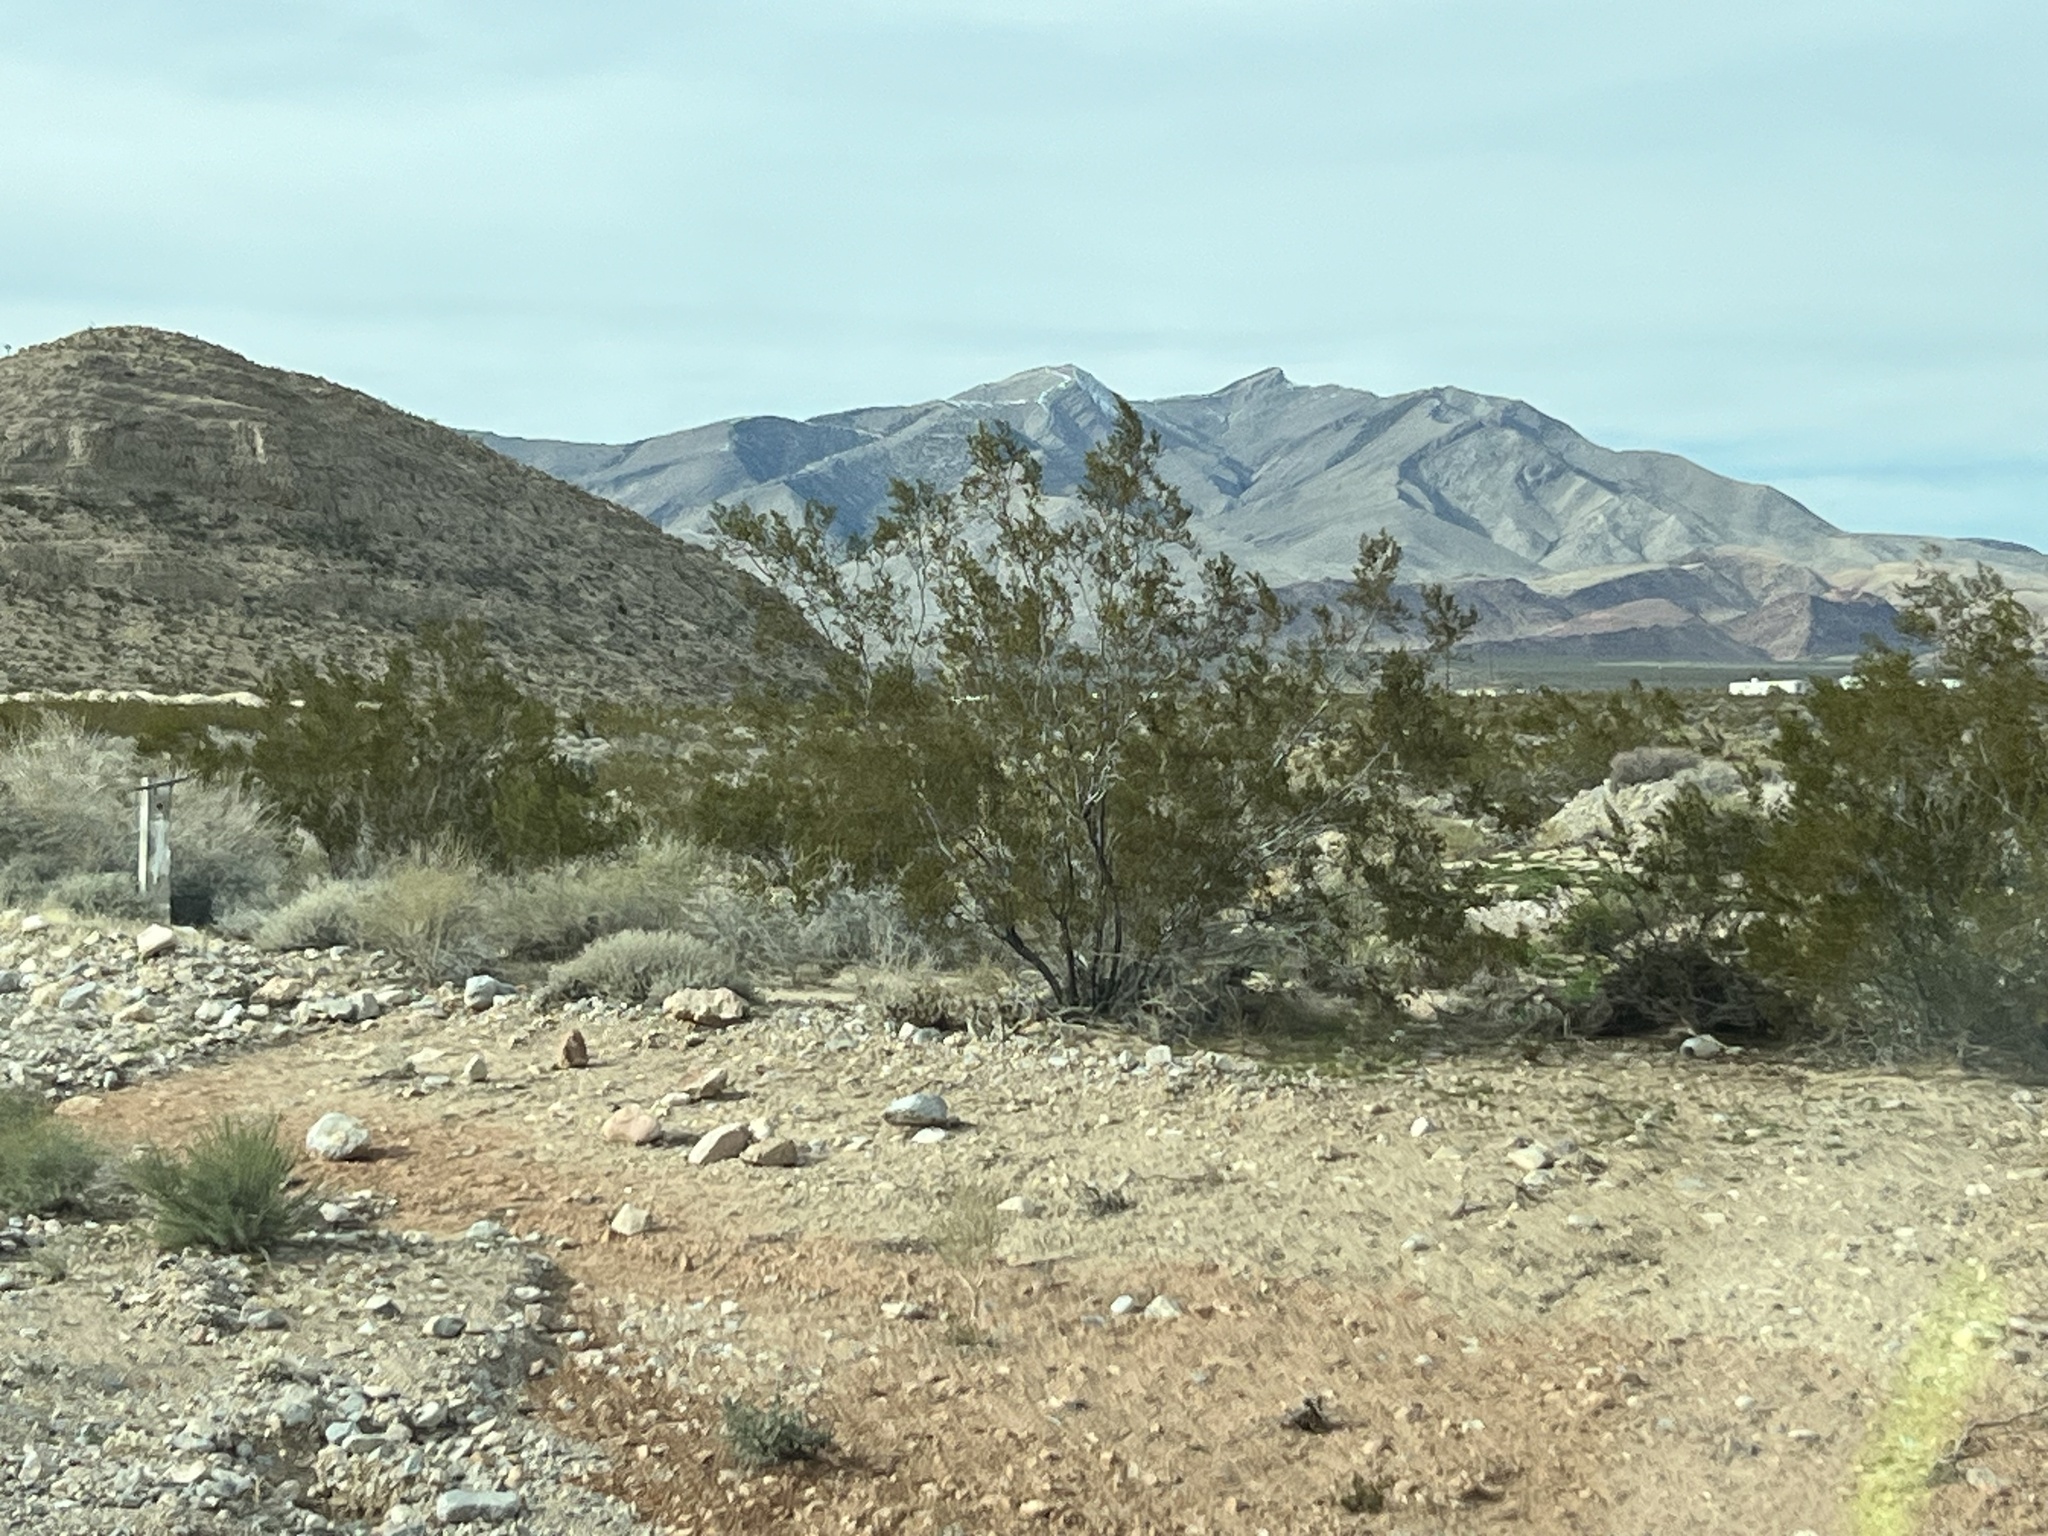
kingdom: Plantae
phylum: Tracheophyta
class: Magnoliopsida
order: Zygophyllales
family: Zygophyllaceae
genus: Larrea
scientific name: Larrea tridentata
